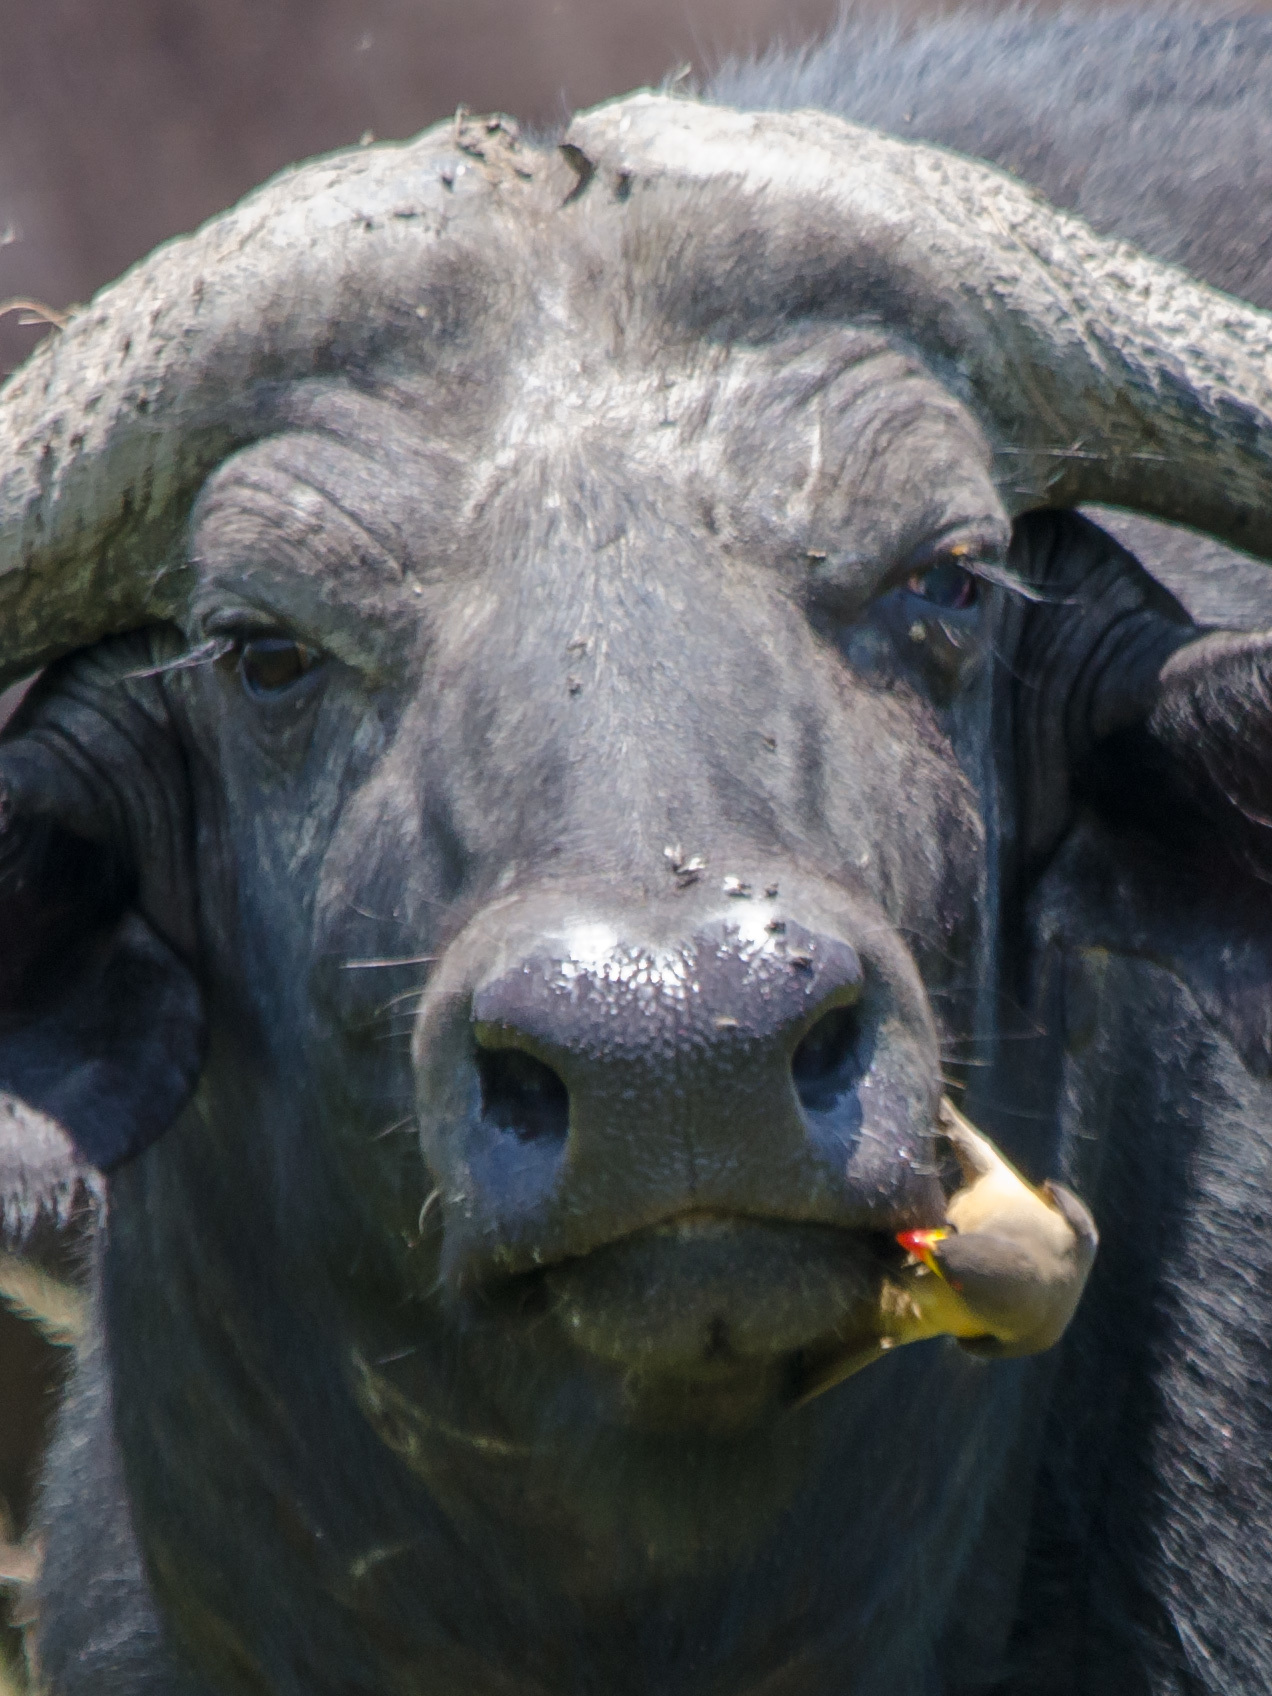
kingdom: Animalia
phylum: Chordata
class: Aves
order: Passeriformes
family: Buphagidae
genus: Buphagus
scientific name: Buphagus africanus
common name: Yellow-billed oxpecker
